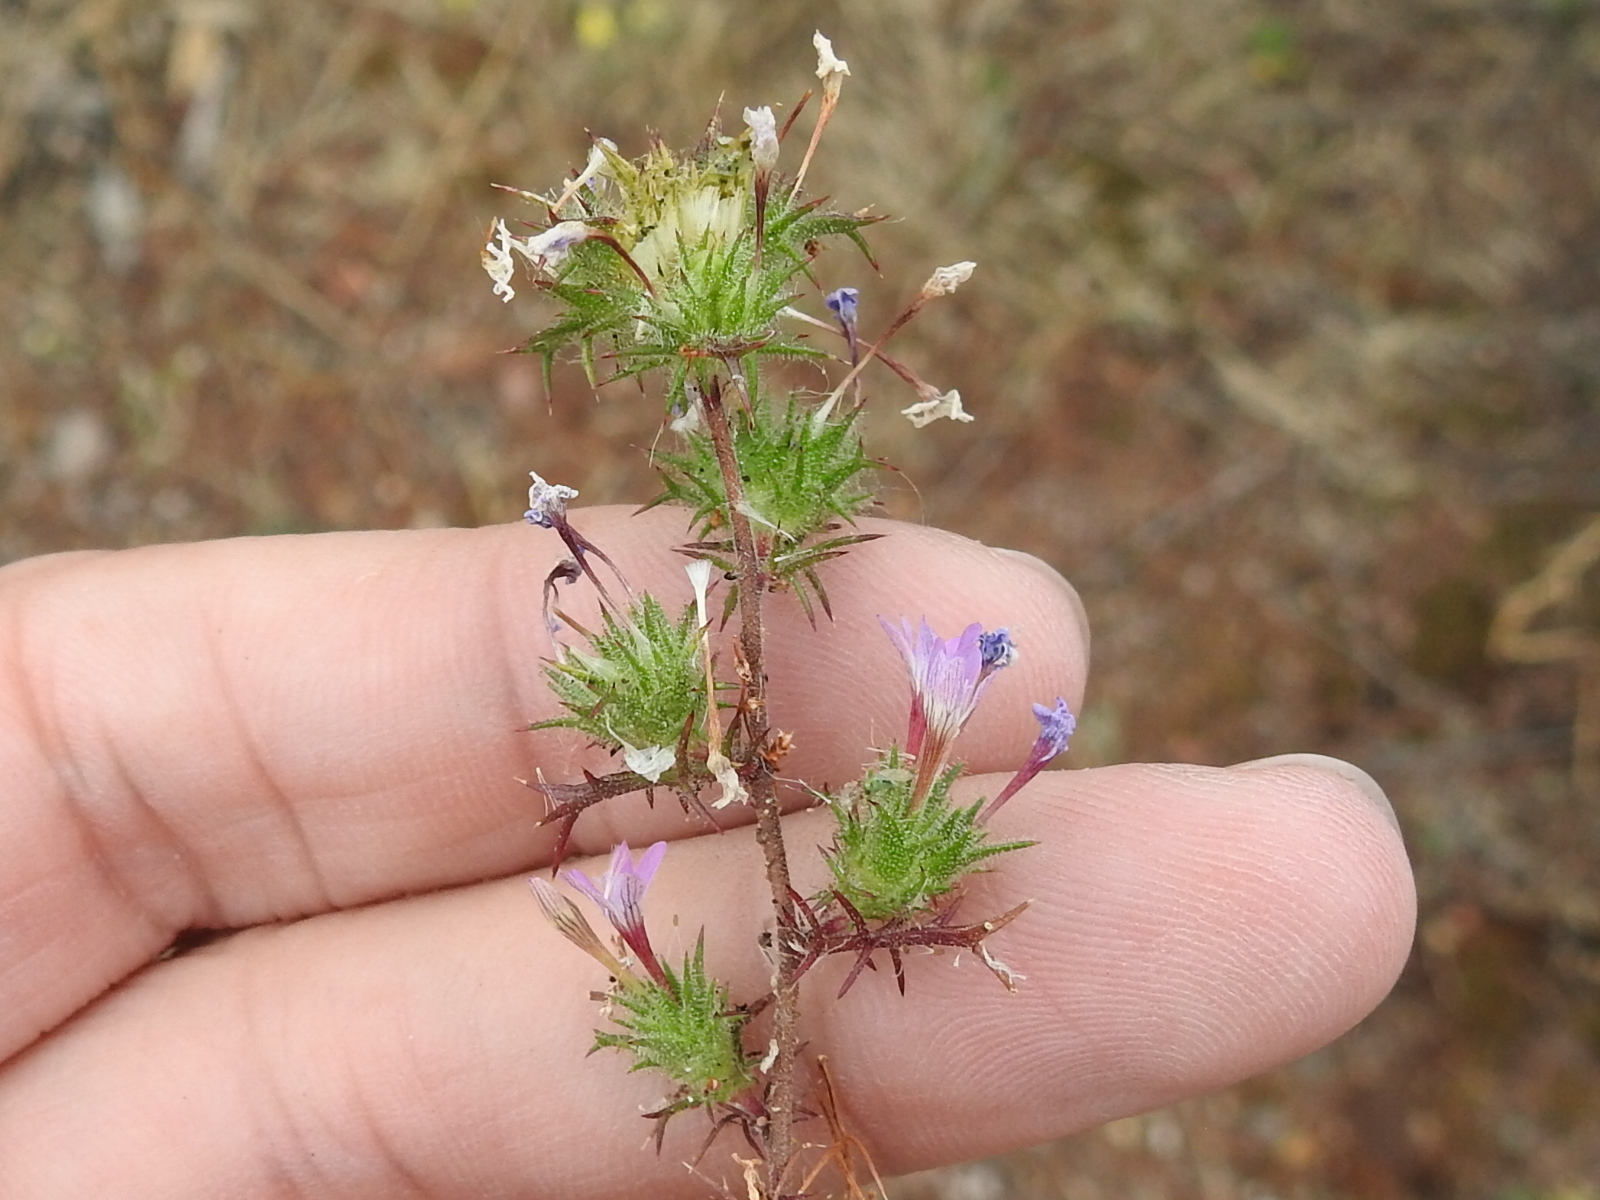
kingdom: Plantae
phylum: Tracheophyta
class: Magnoliopsida
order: Ericales
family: Polemoniaceae
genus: Navarretia
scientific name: Navarretia hamata
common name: Hooked navarretia
